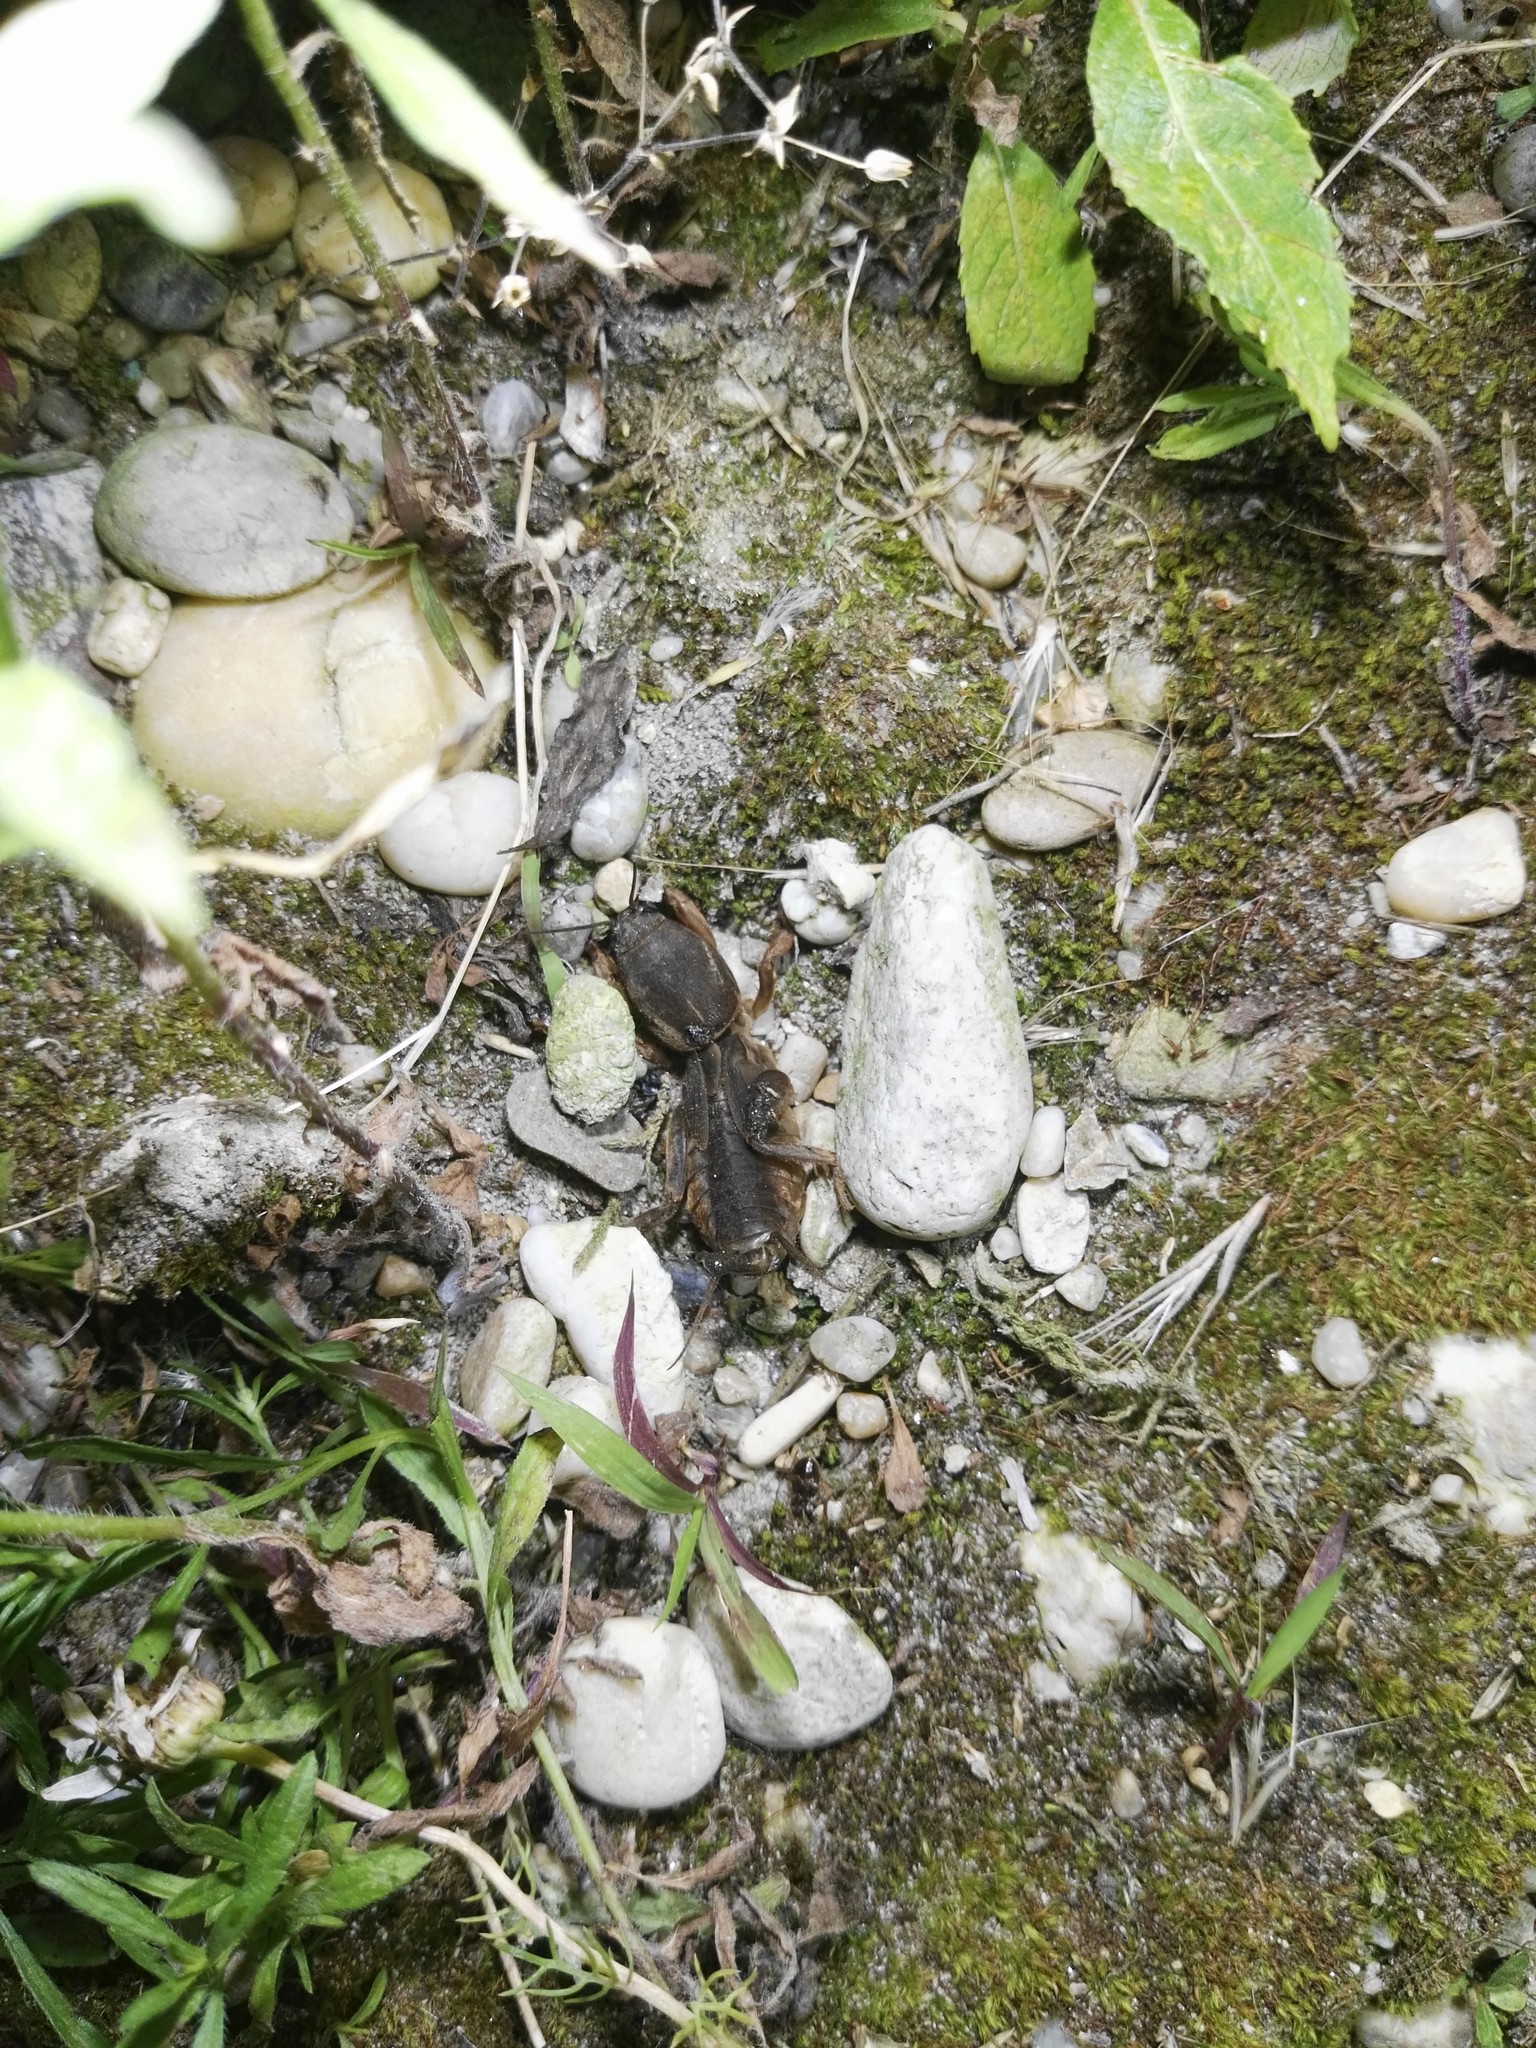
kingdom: Animalia
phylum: Arthropoda
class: Insecta
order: Orthoptera
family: Gryllotalpidae
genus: Gryllotalpa
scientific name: Gryllotalpa gryllotalpa
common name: European mole cricket
